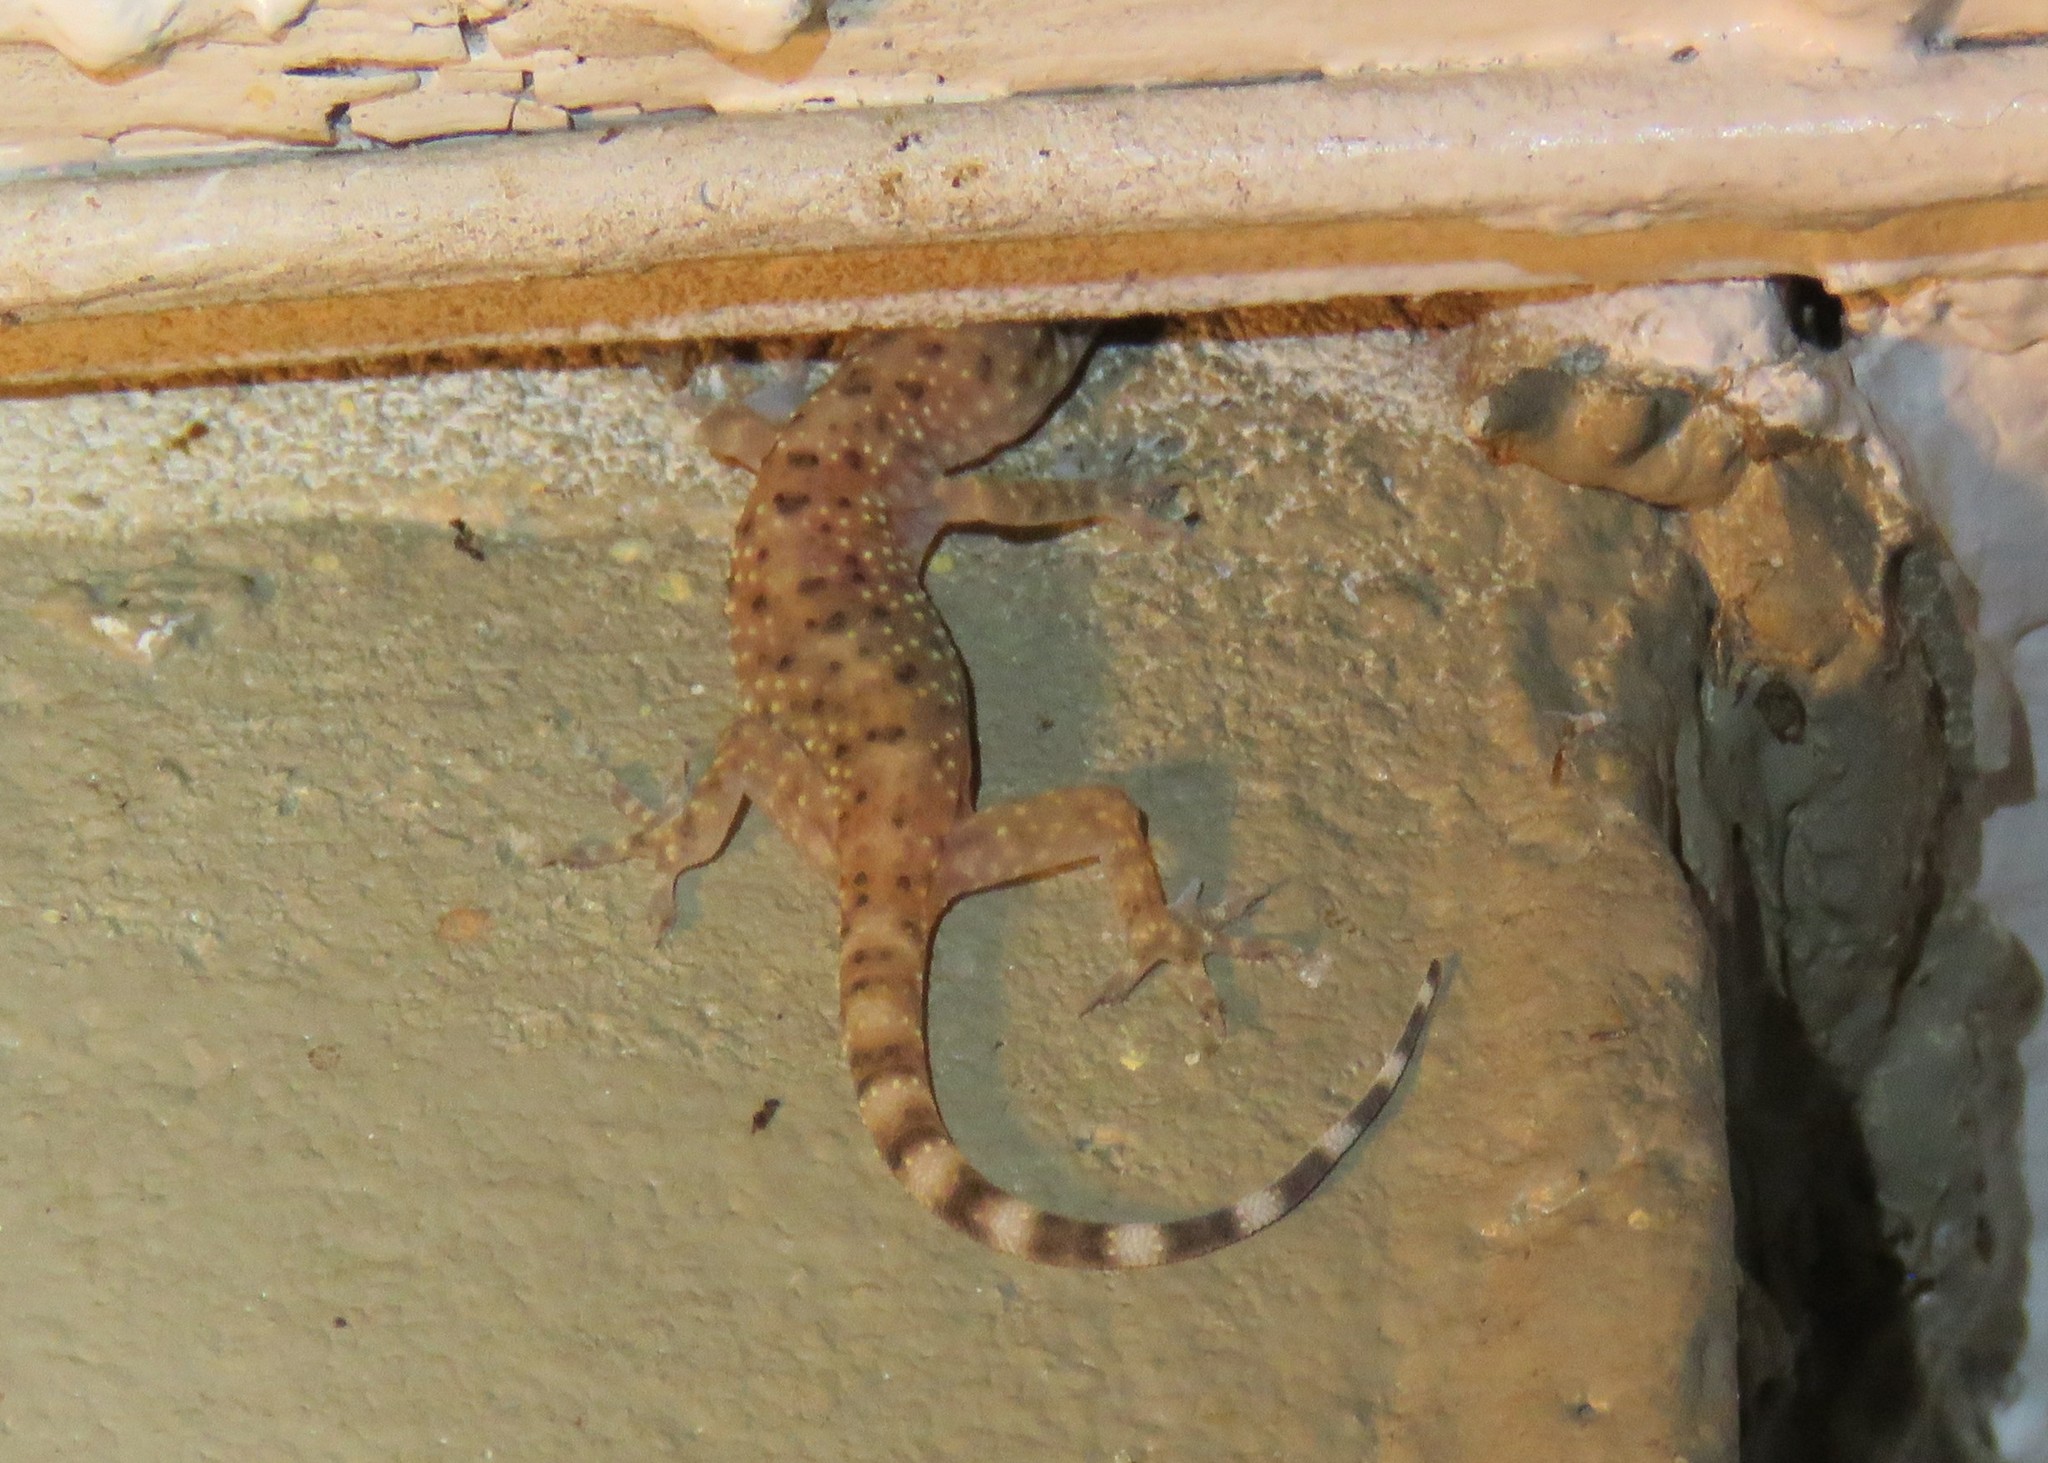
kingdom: Animalia
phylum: Chordata
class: Squamata
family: Gekkonidae
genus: Hemidactylus
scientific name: Hemidactylus turcicus
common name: Turkish gecko
